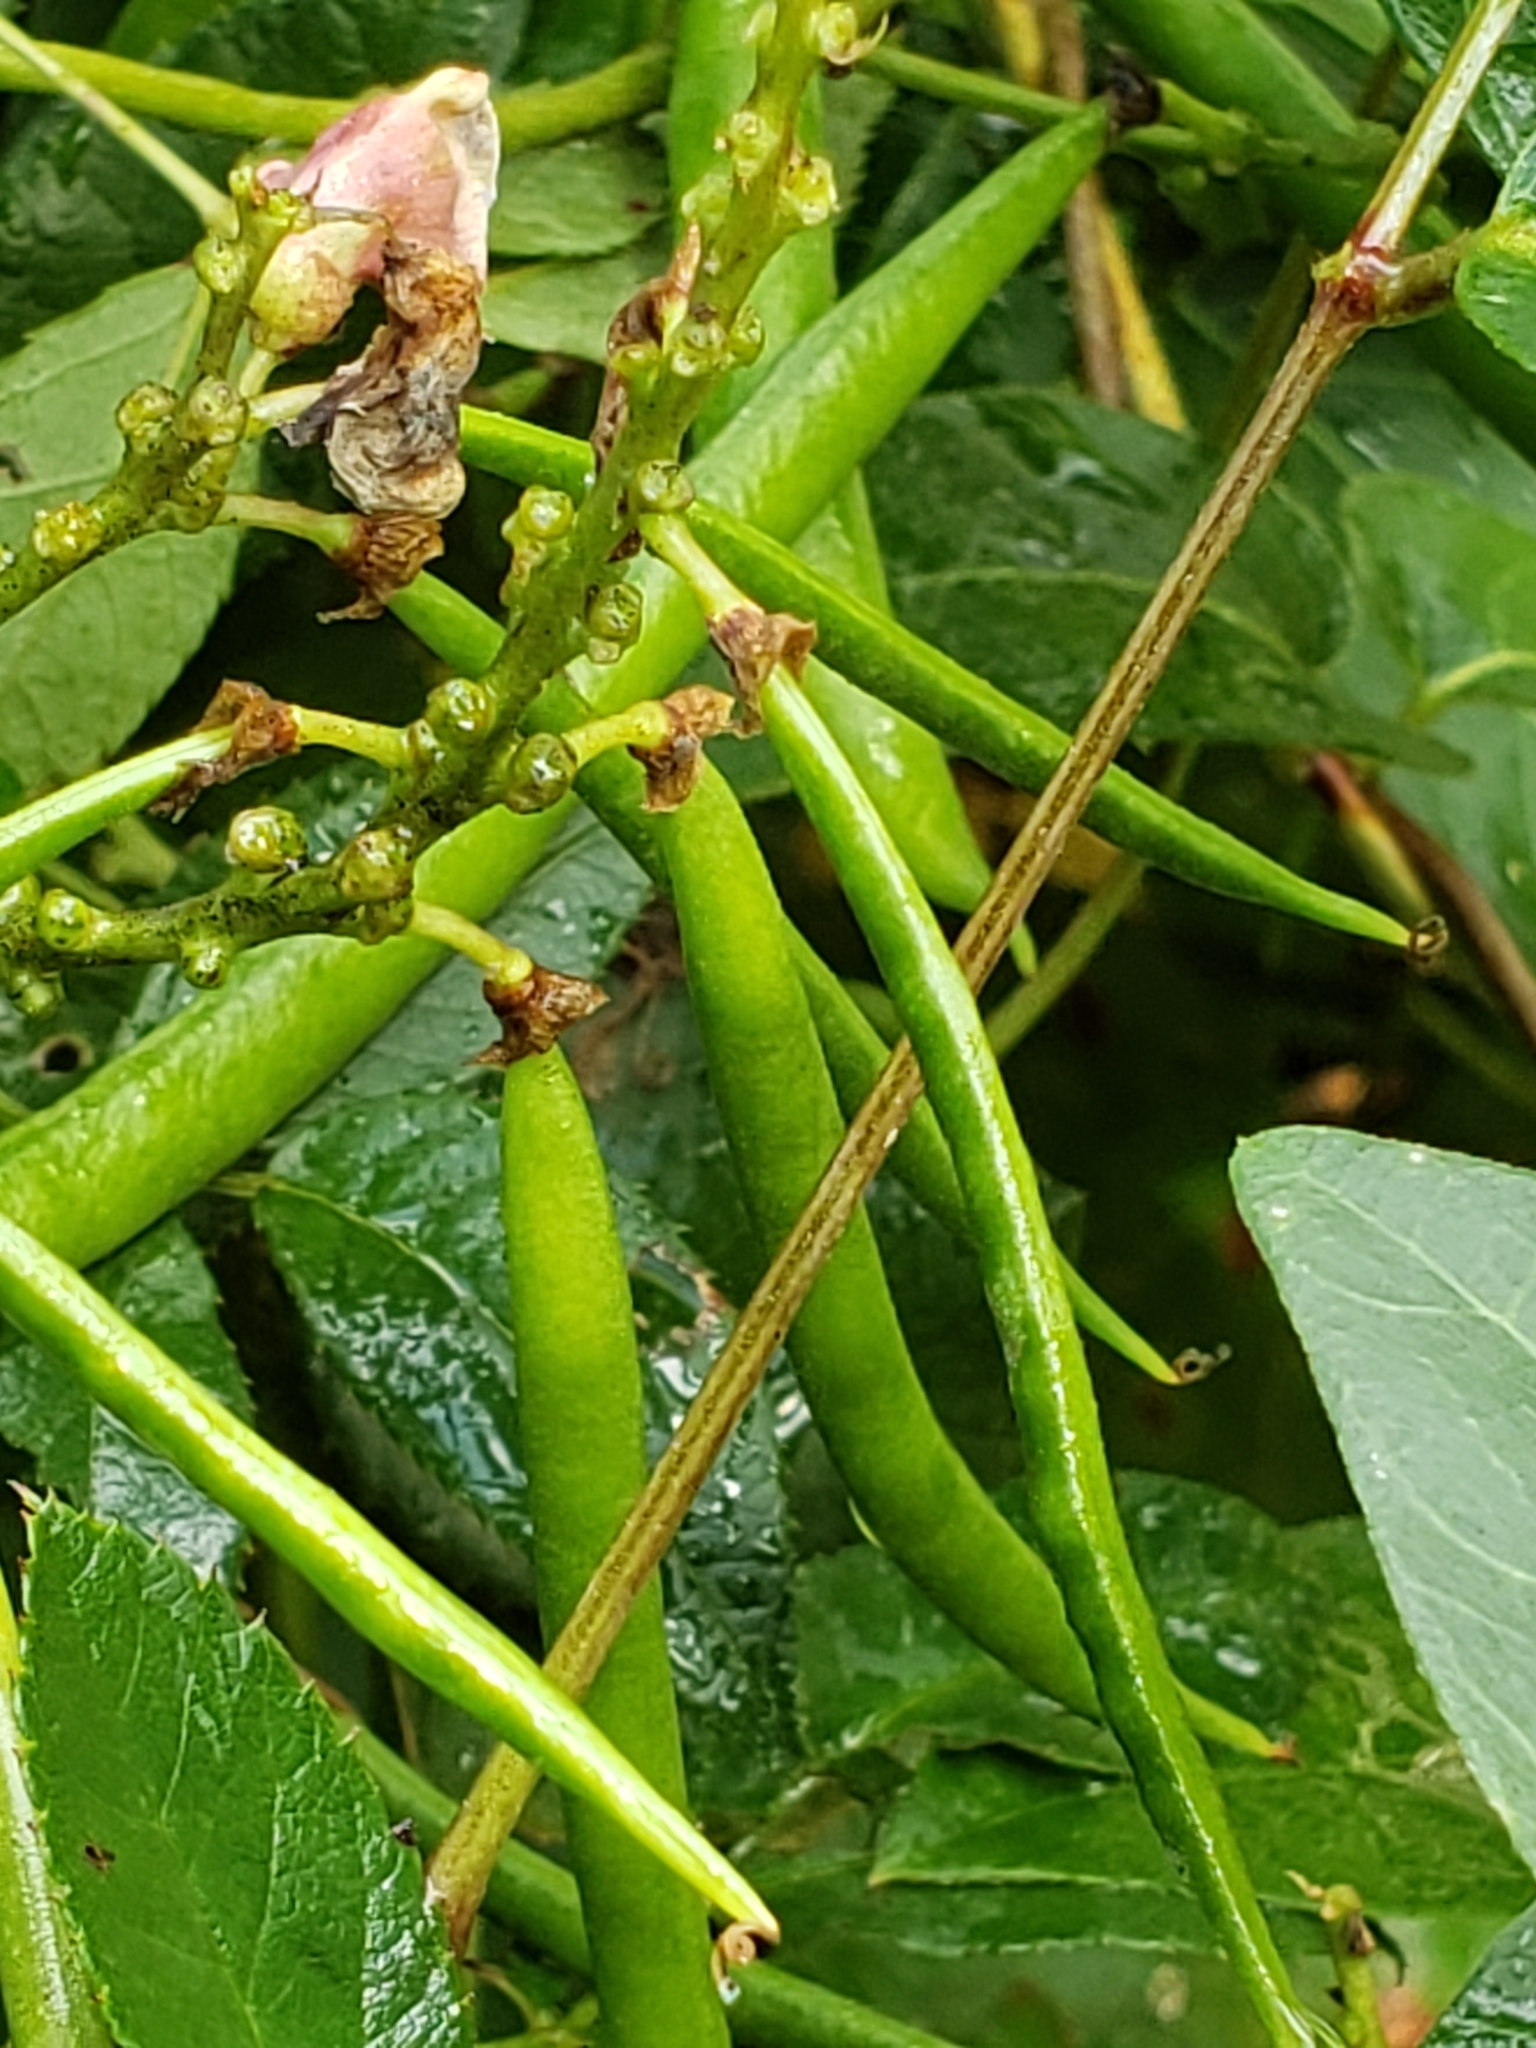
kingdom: Plantae
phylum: Tracheophyta
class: Magnoliopsida
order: Fabales
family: Fabaceae
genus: Apios
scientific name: Apios americana
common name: American potato-bean
